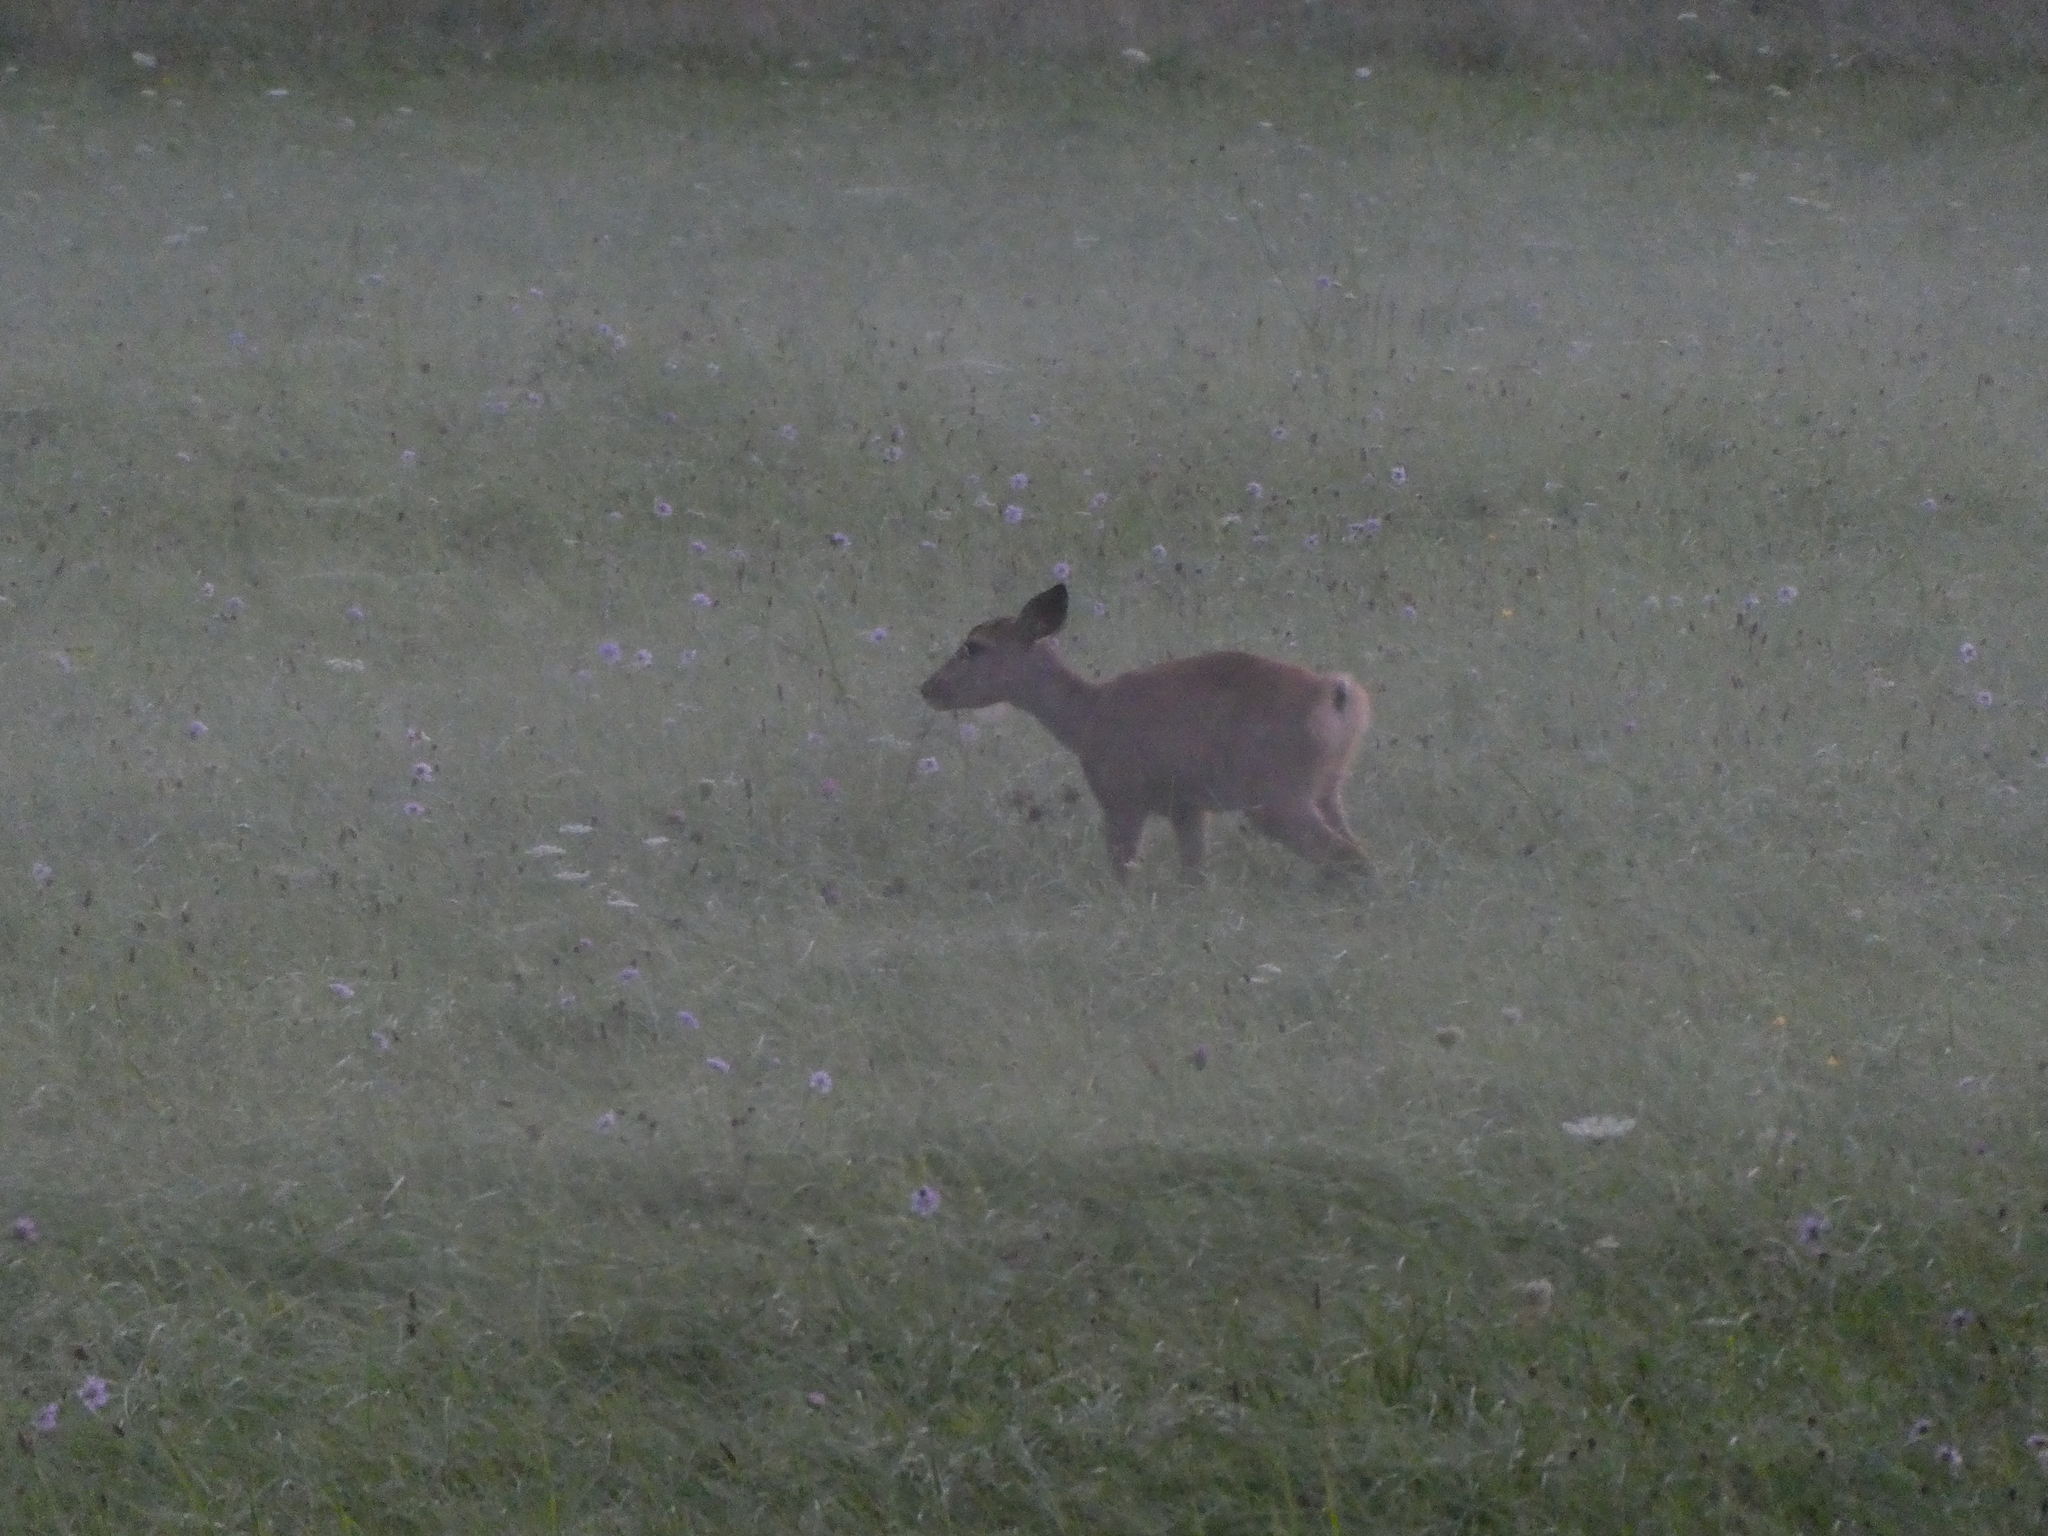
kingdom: Animalia
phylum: Chordata
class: Mammalia
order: Artiodactyla
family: Cervidae
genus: Capreolus
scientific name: Capreolus capreolus
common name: Western roe deer
